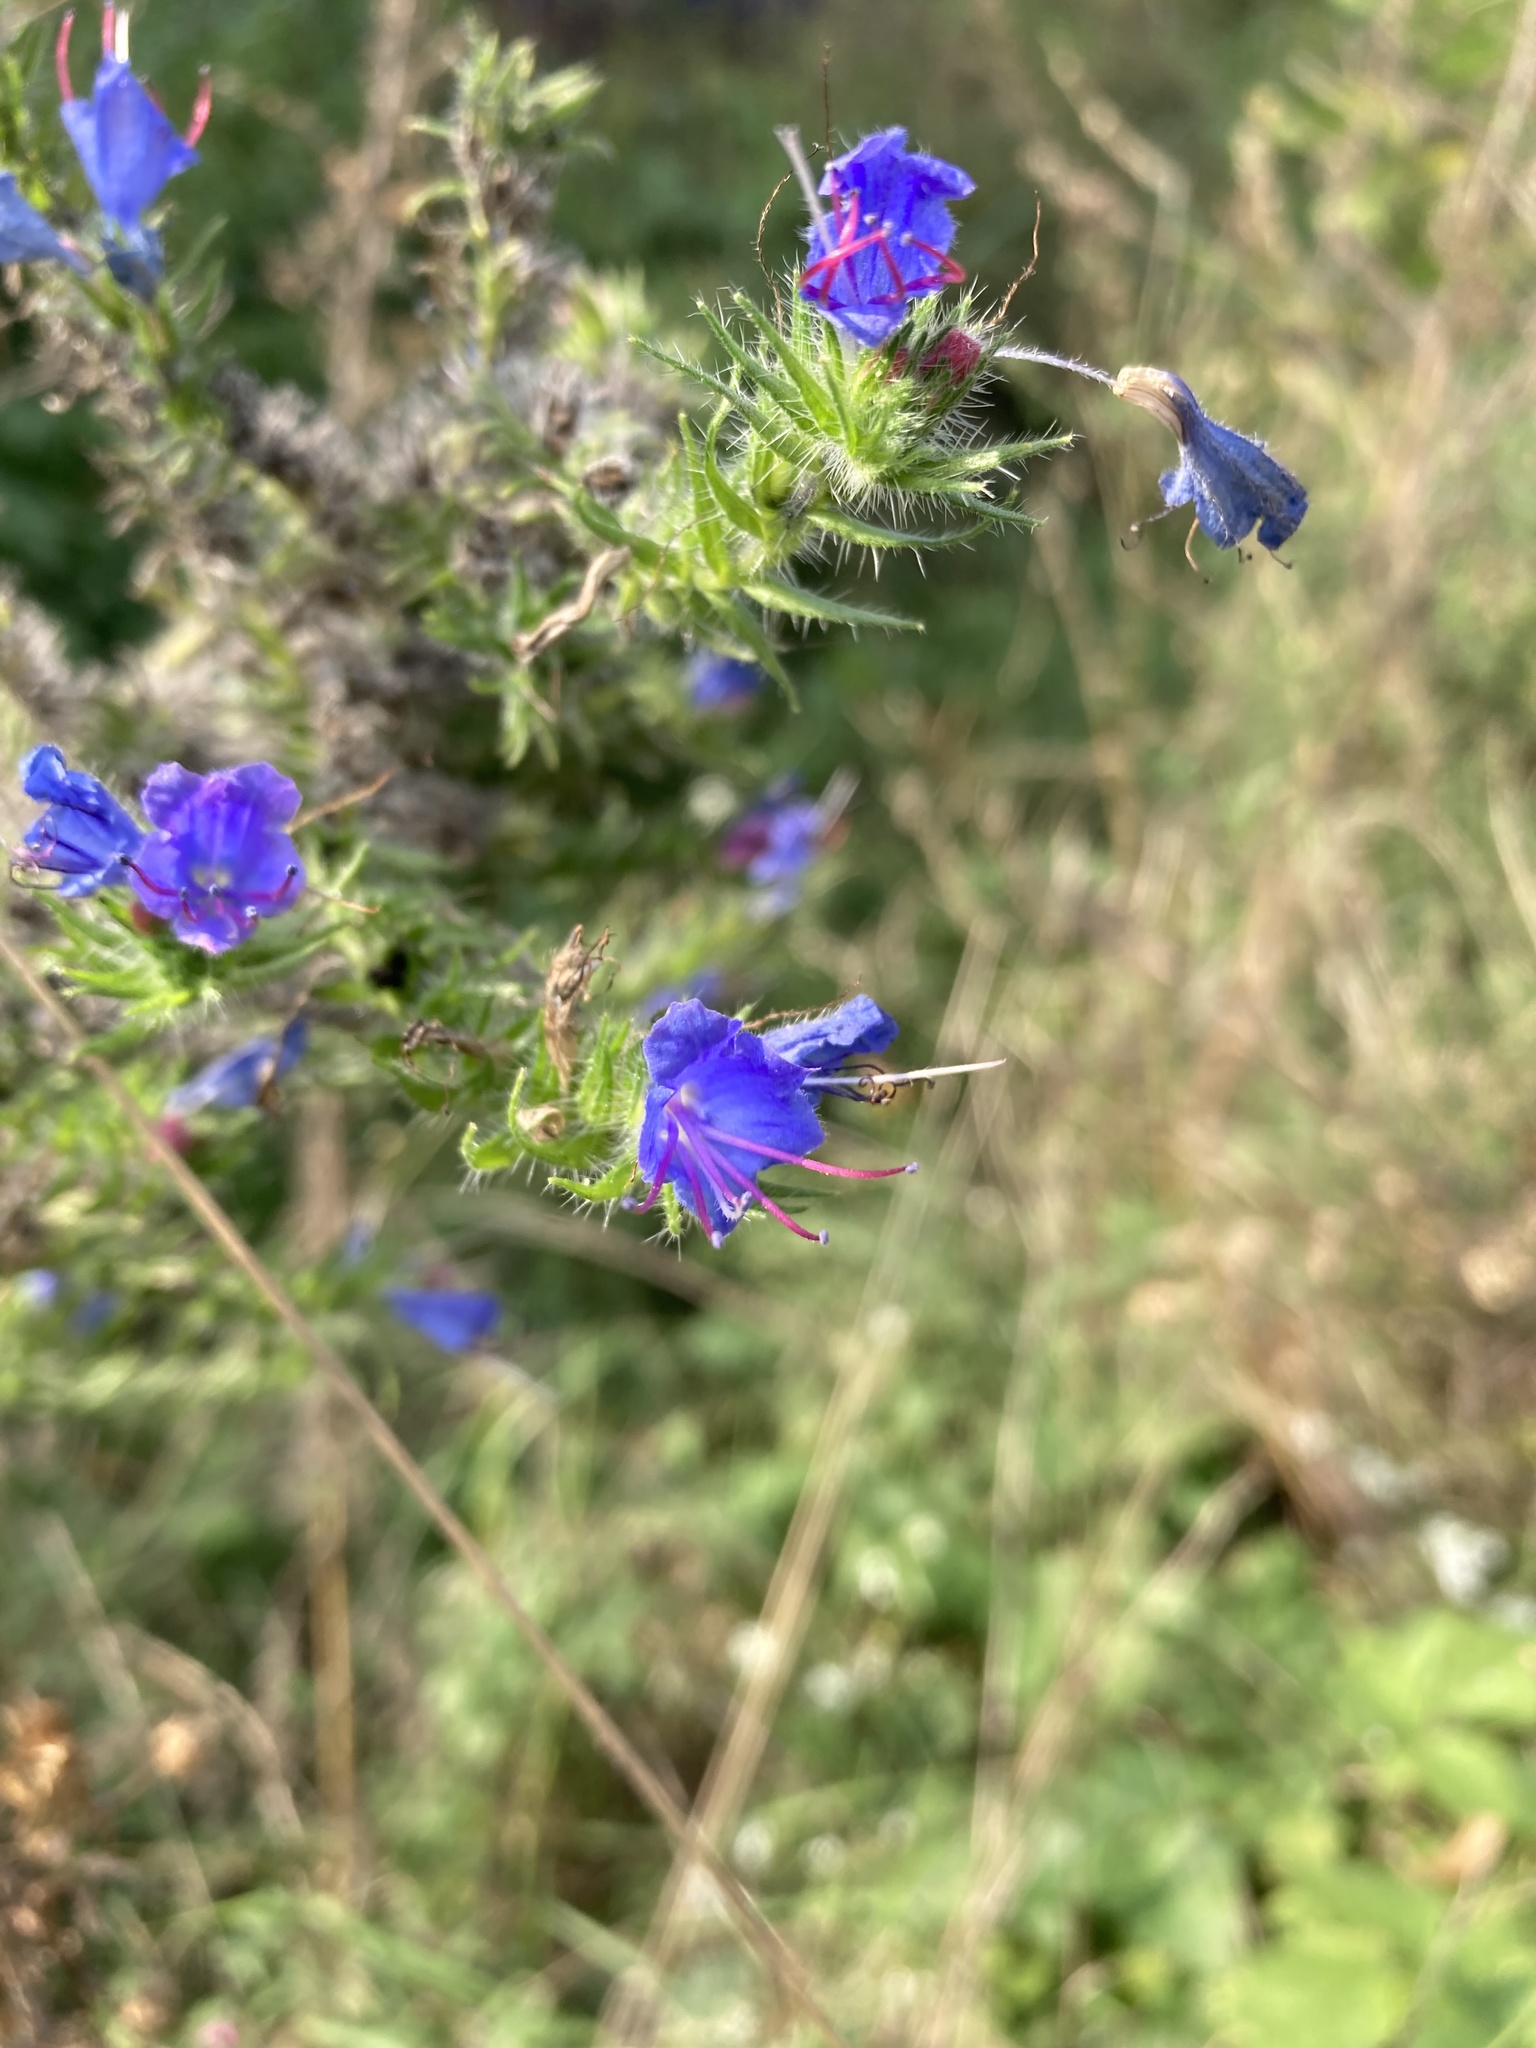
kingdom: Plantae
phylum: Tracheophyta
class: Magnoliopsida
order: Boraginales
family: Boraginaceae
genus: Echium
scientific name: Echium vulgare
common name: Common viper's bugloss
